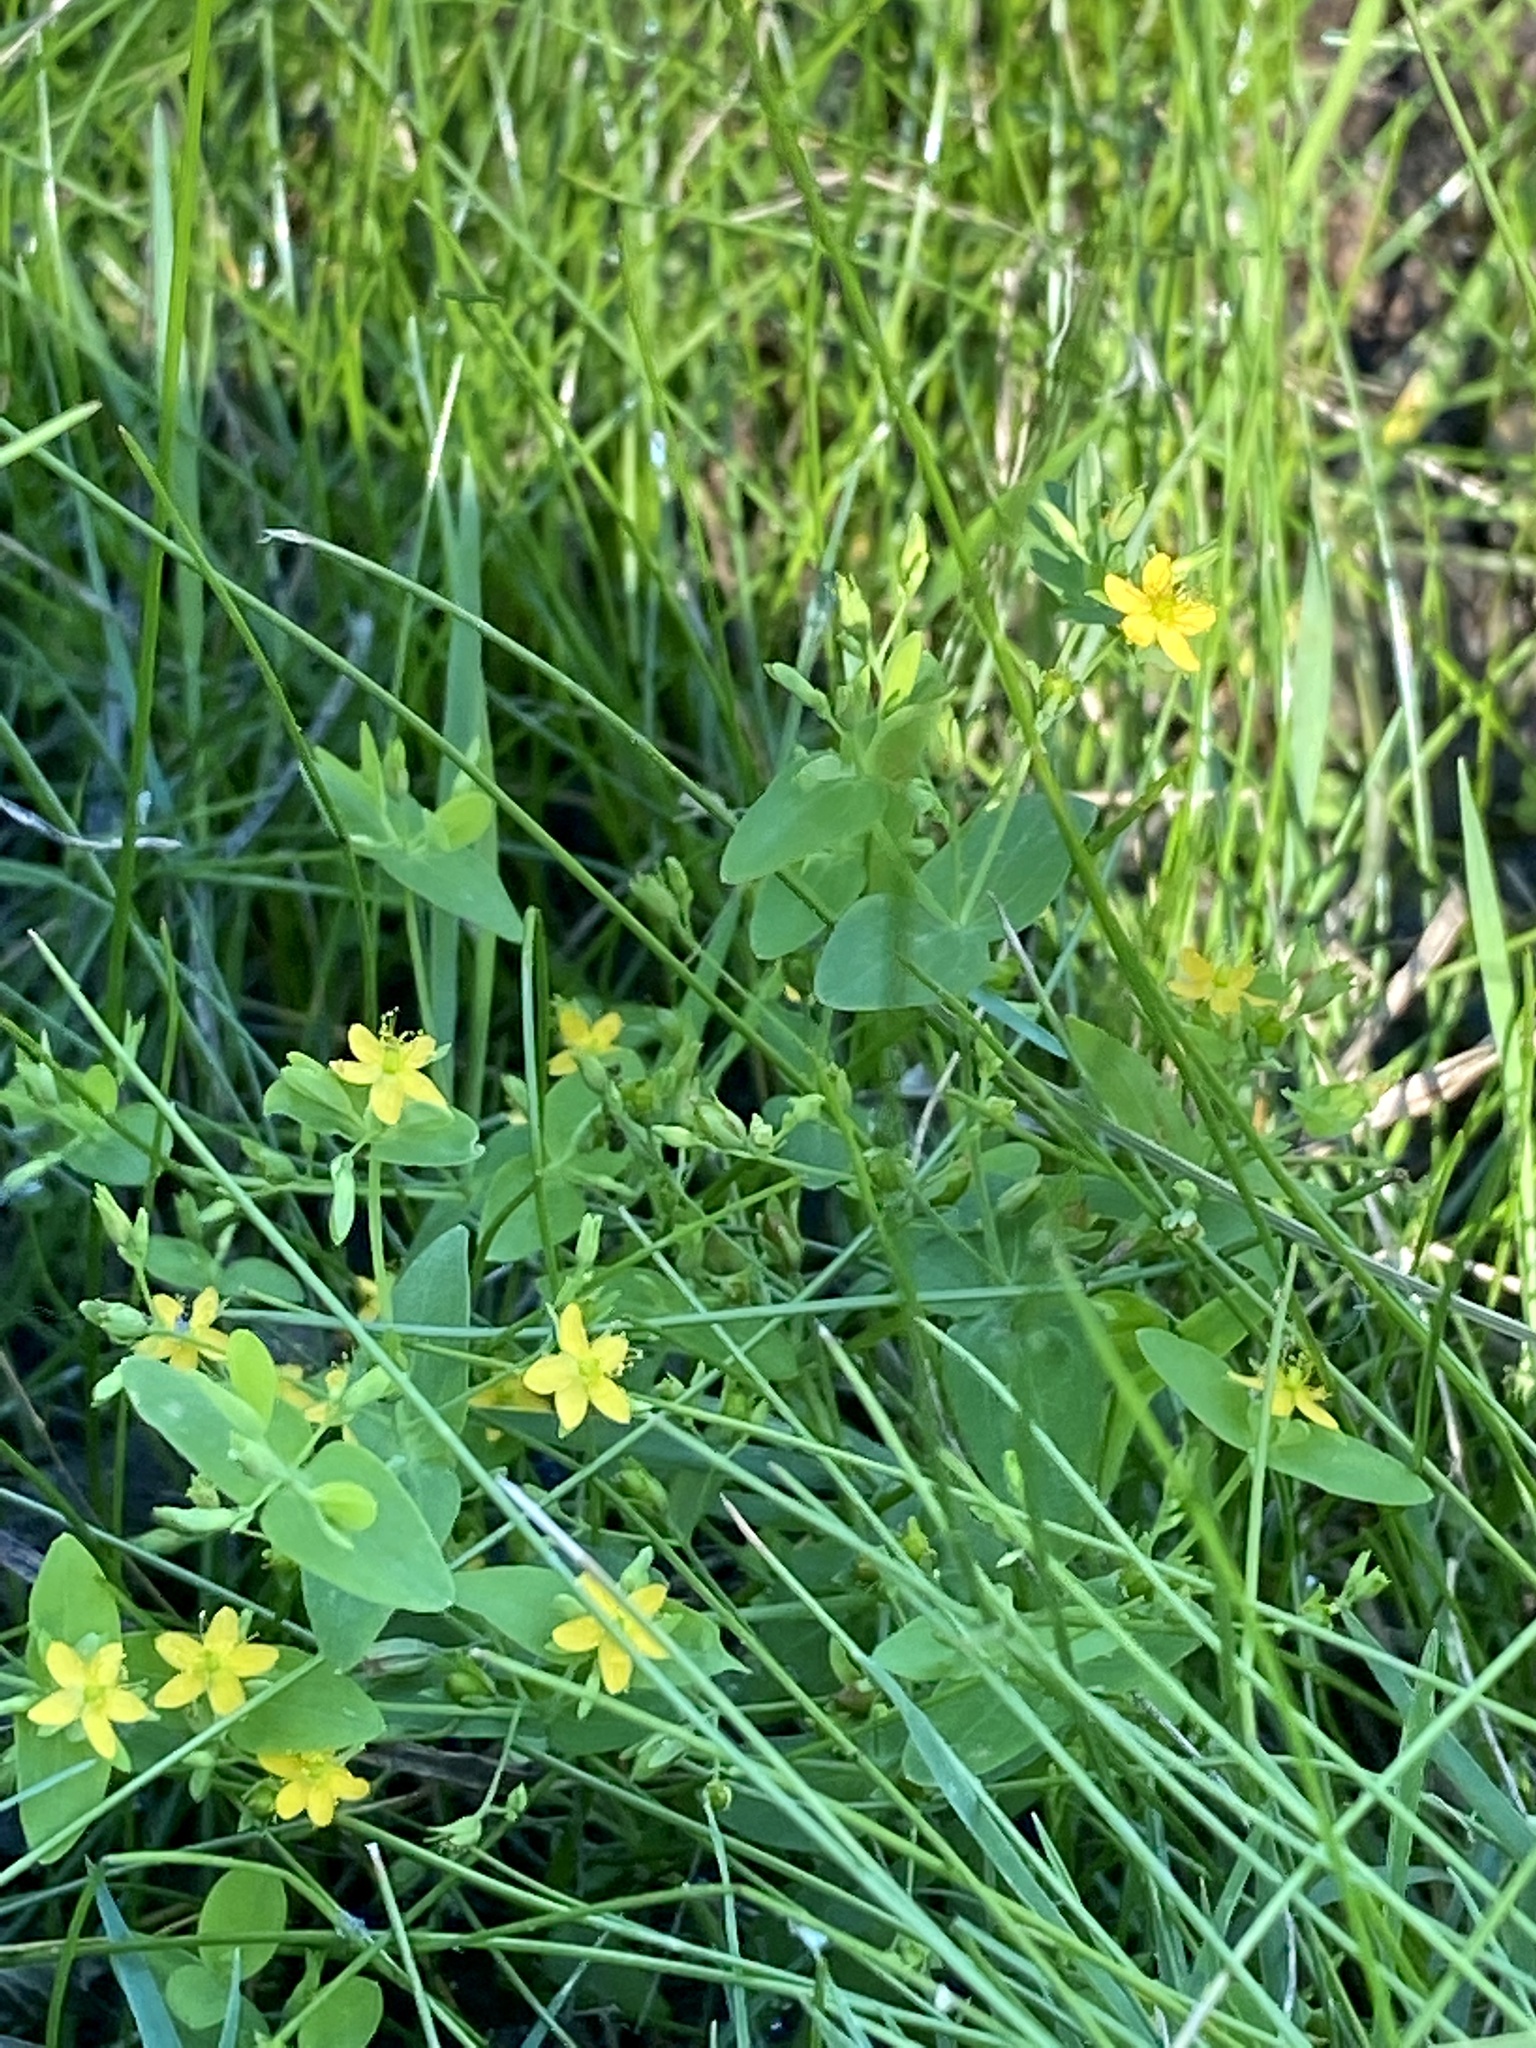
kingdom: Plantae
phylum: Tracheophyta
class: Magnoliopsida
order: Malpighiales
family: Hypericaceae
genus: Hypericum
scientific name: Hypericum mutilum
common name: Dwarf st. john's-wort
